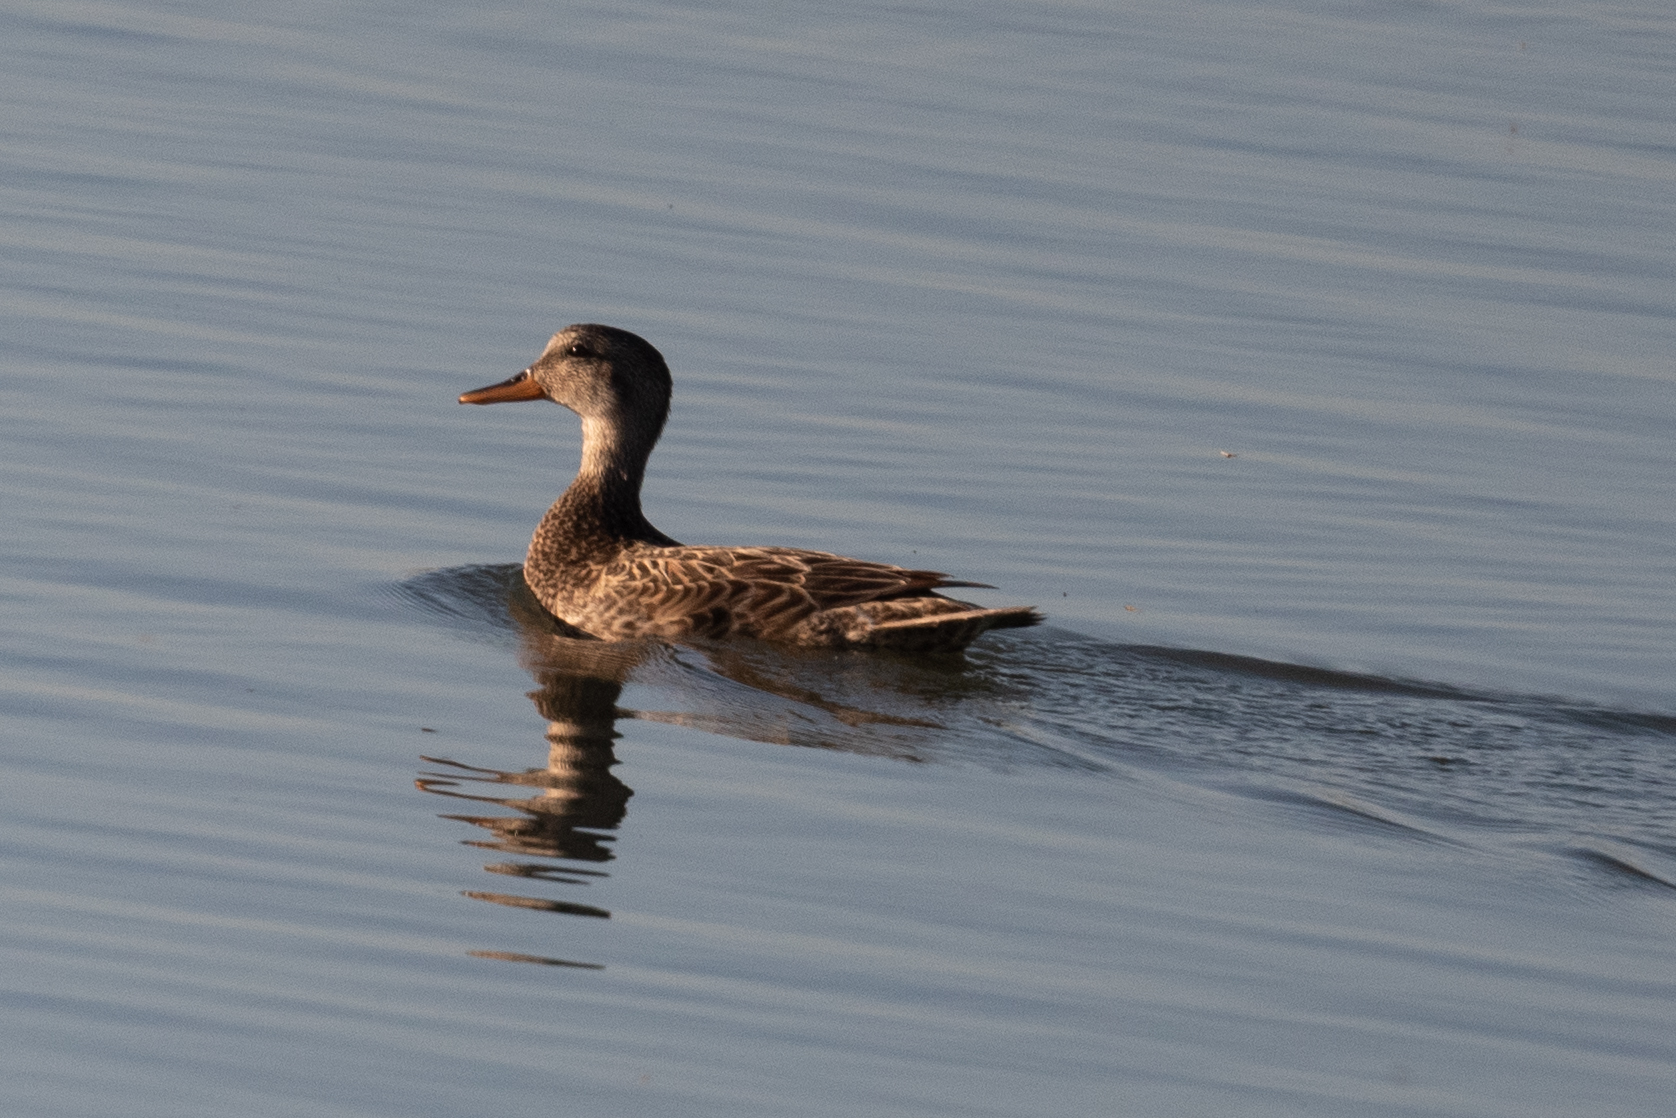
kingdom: Animalia
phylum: Chordata
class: Aves
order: Anseriformes
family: Anatidae
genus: Mareca
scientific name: Mareca strepera
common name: Gadwall
